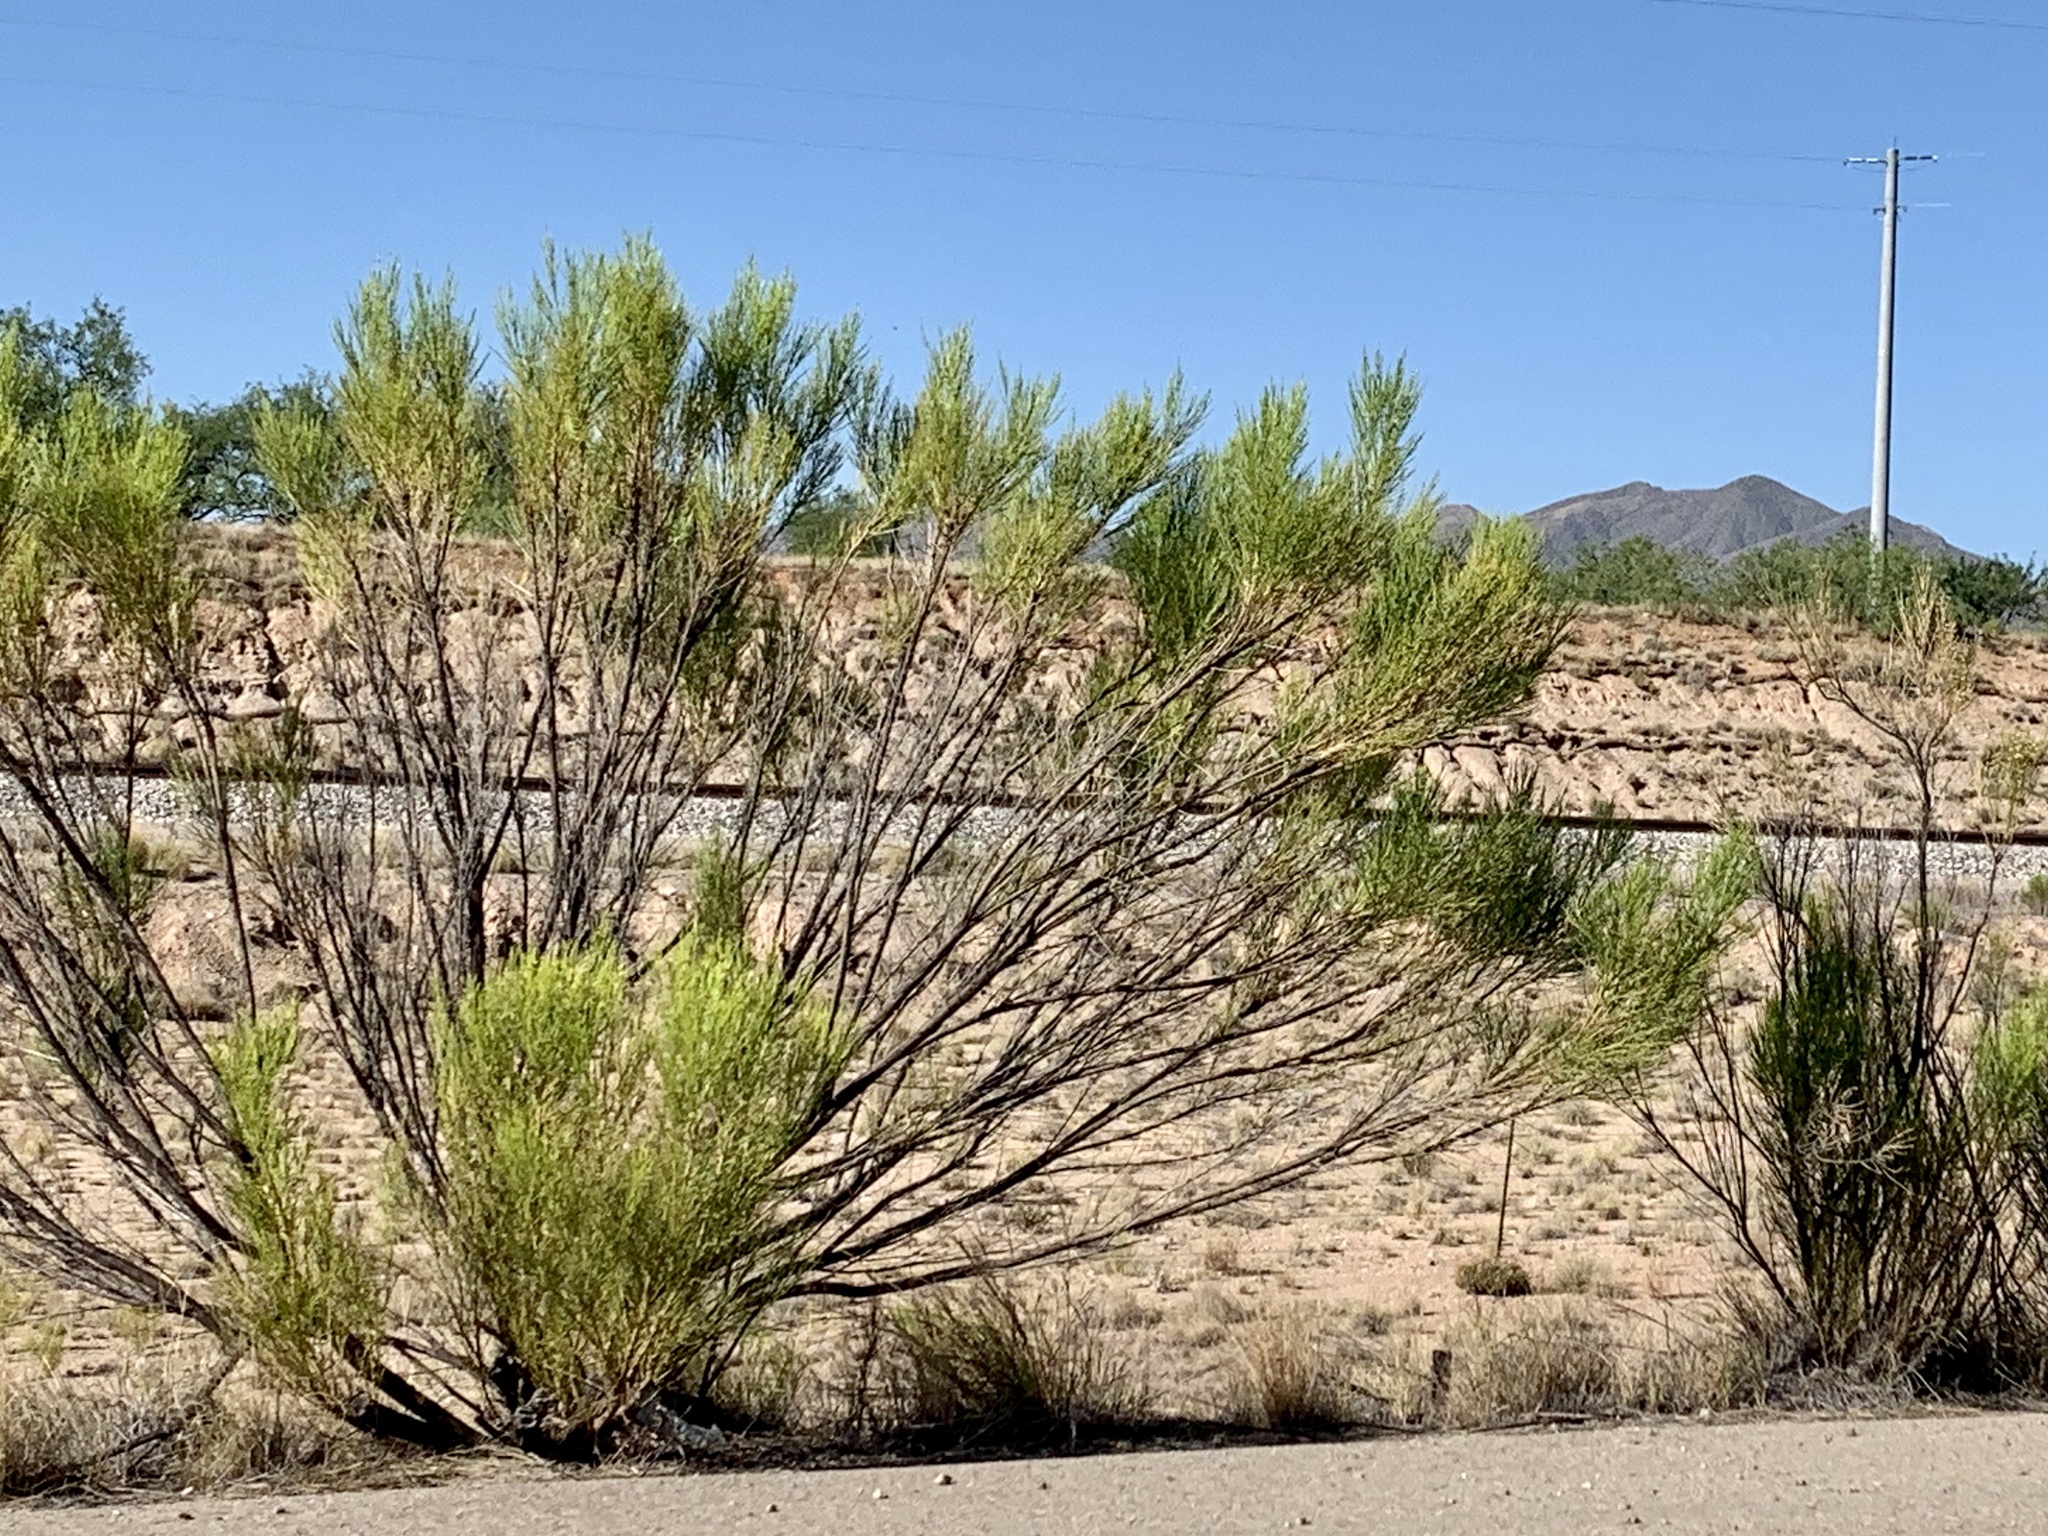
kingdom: Plantae
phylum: Tracheophyta
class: Magnoliopsida
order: Asterales
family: Asteraceae
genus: Baccharis
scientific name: Baccharis sarothroides
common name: Desert-broom
